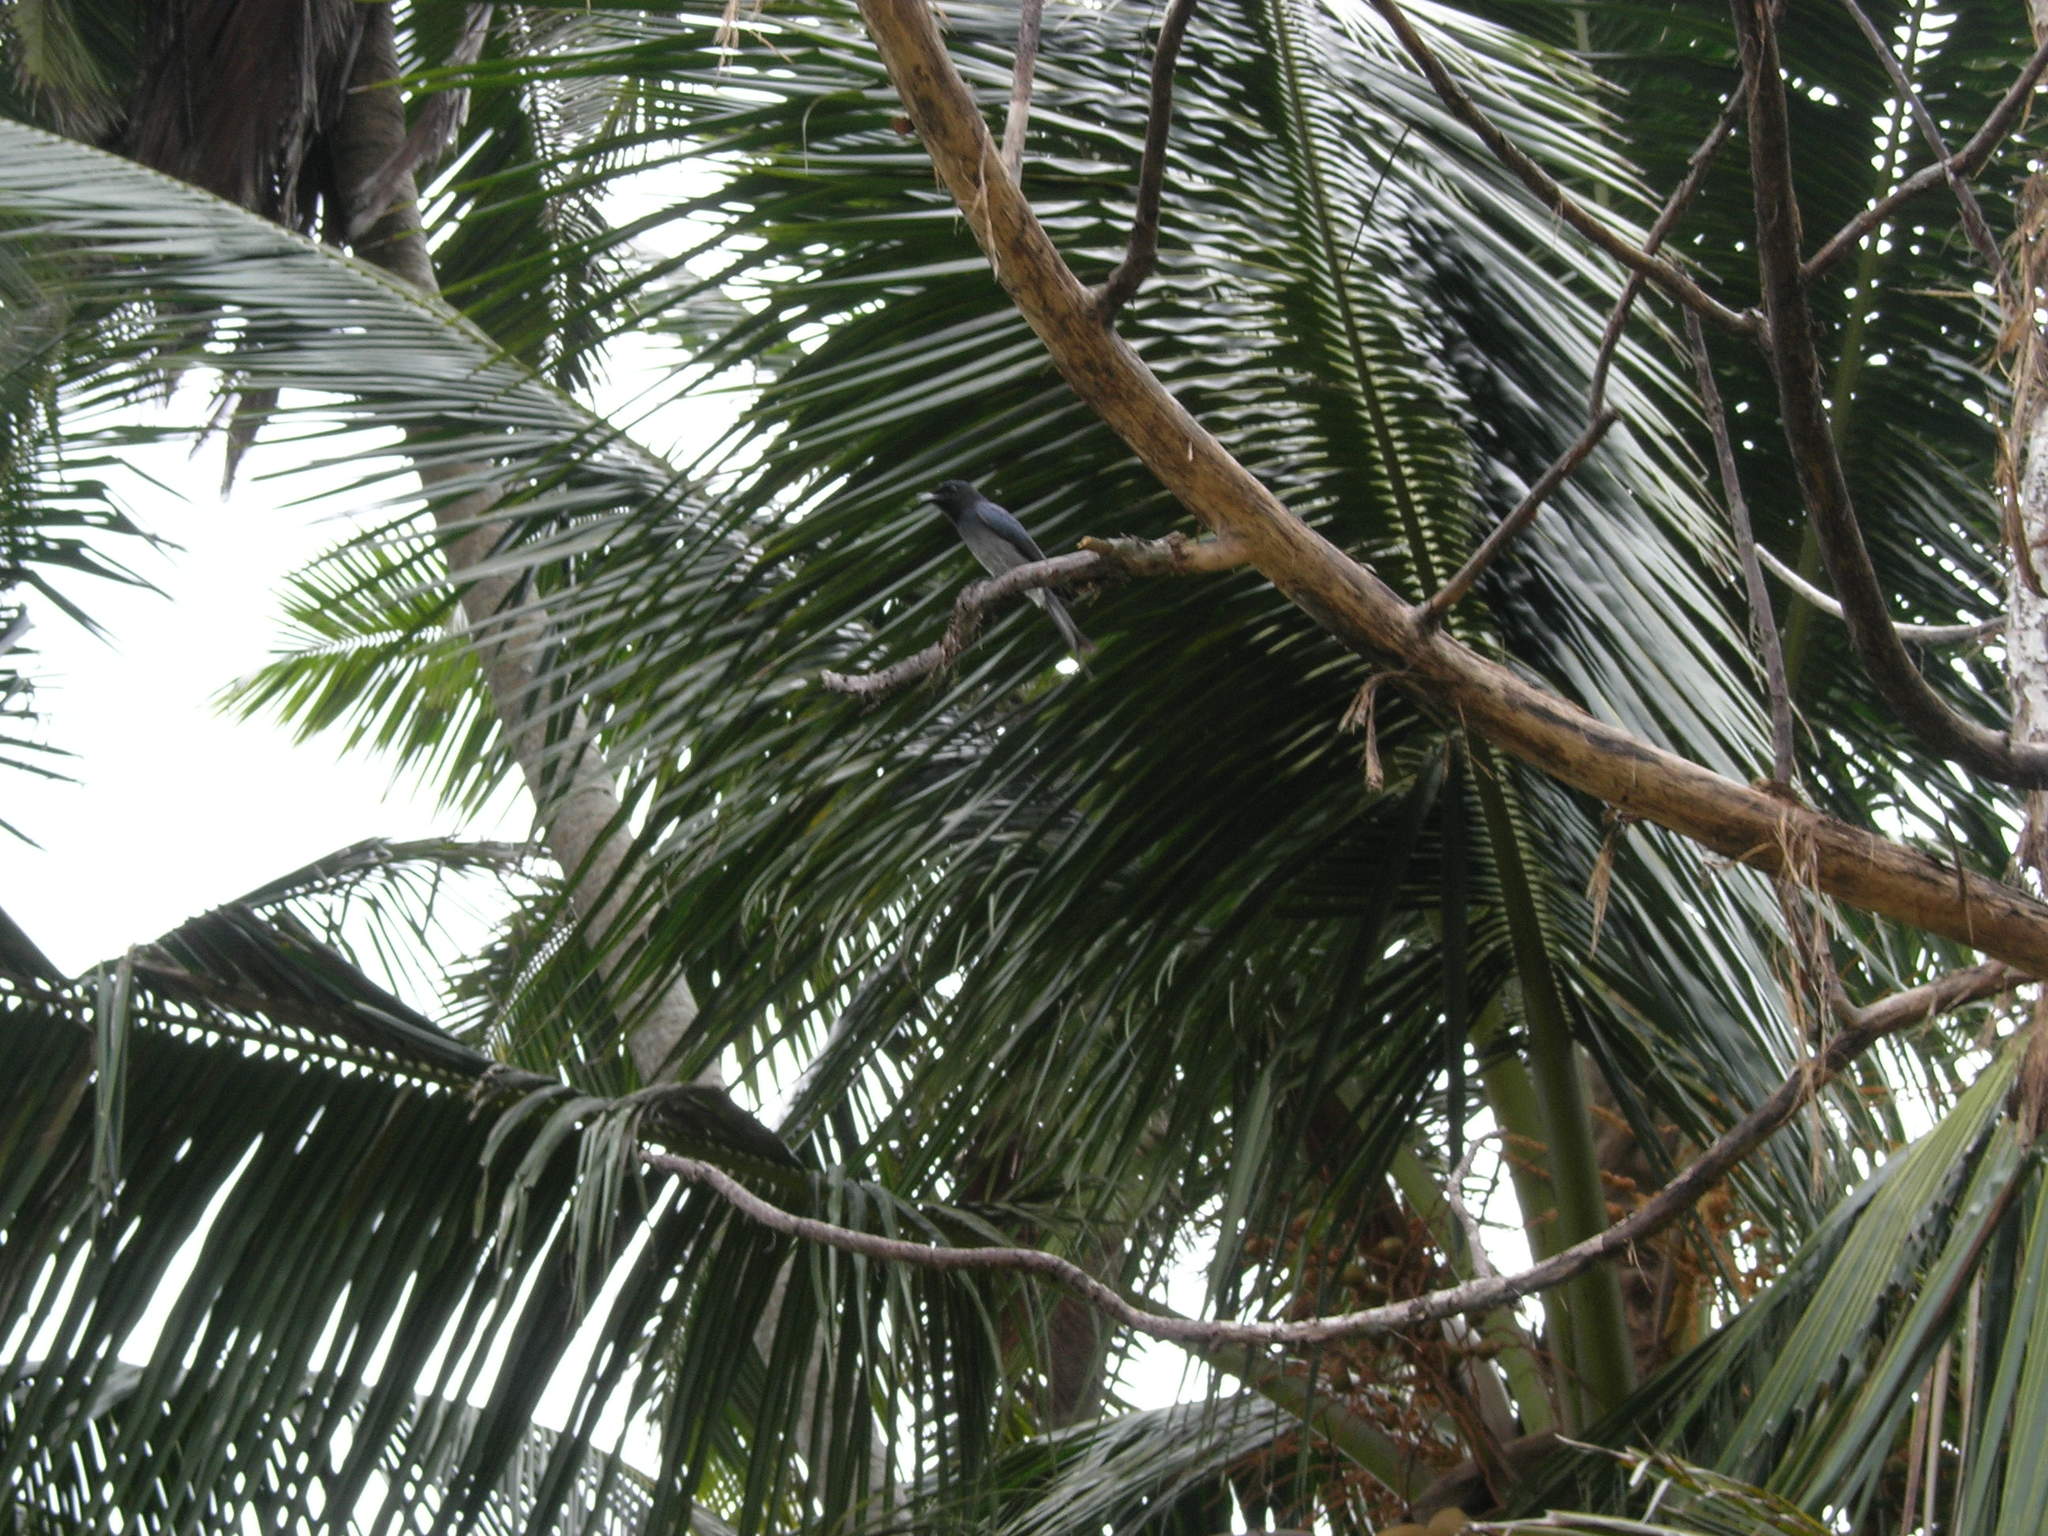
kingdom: Animalia
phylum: Chordata
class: Aves
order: Passeriformes
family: Dicruridae
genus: Dicrurus
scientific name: Dicrurus caerulescens
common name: White-bellied drongo
